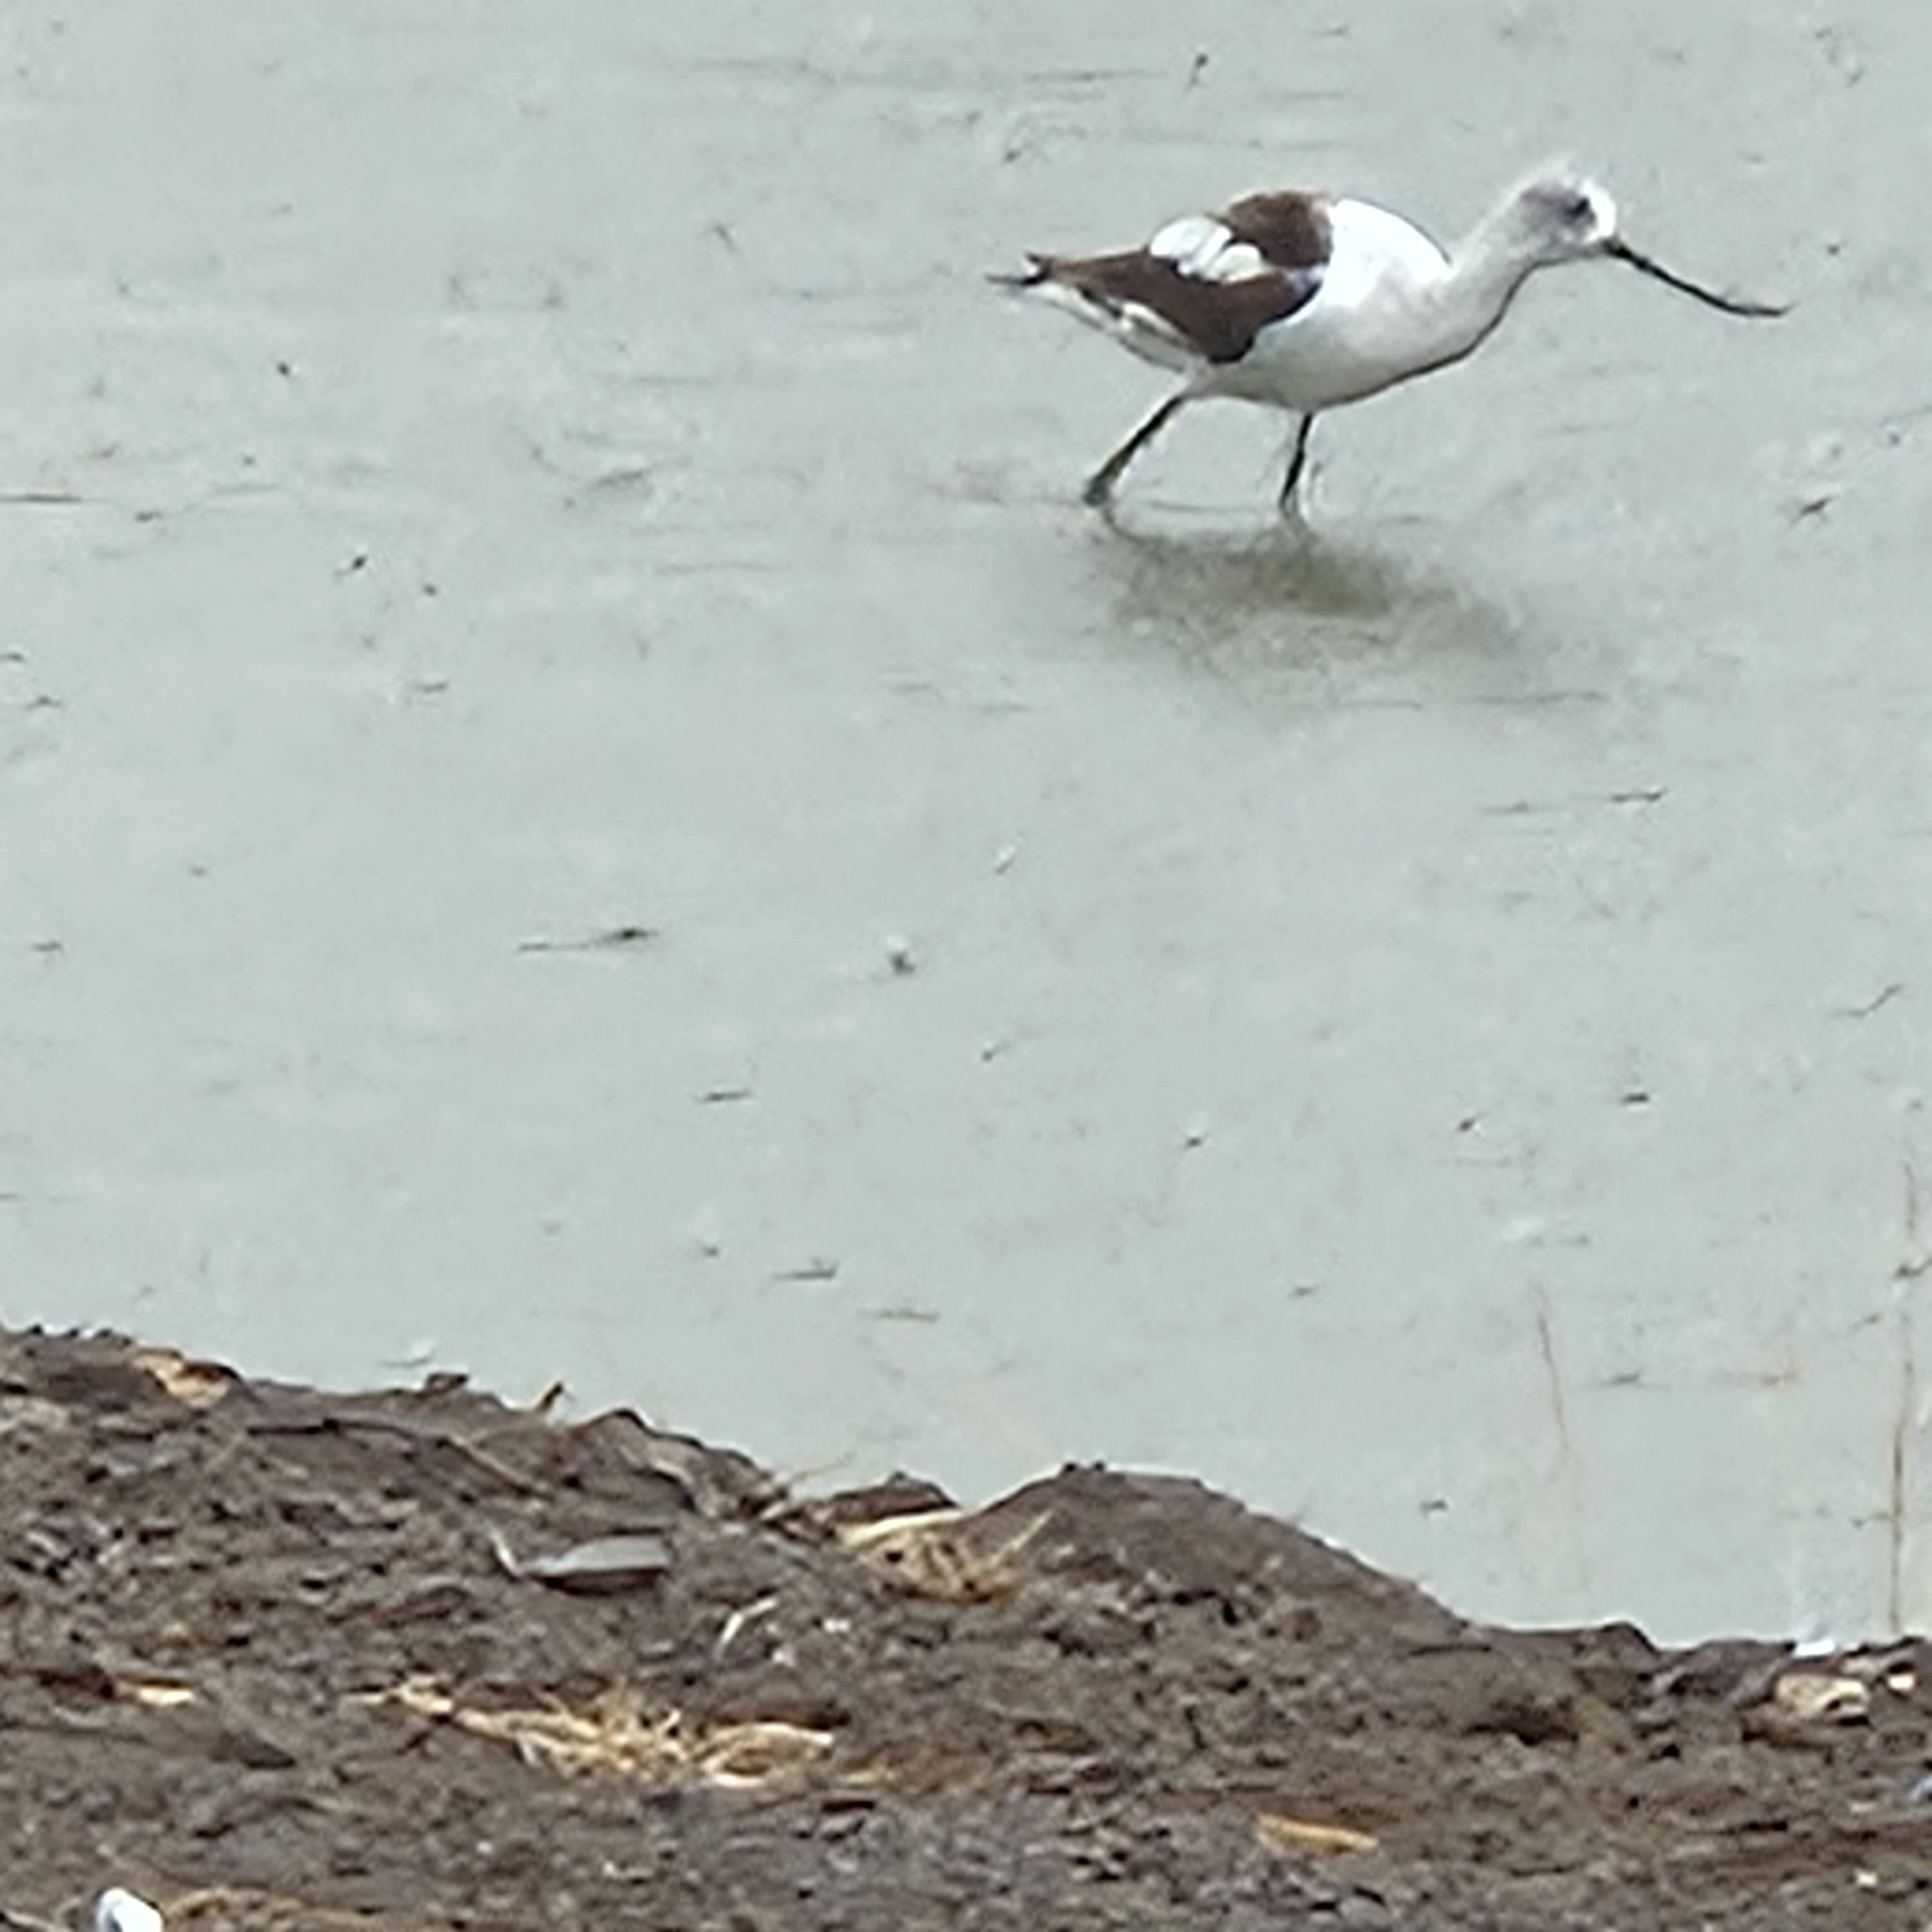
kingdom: Animalia
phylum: Chordata
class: Aves
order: Charadriiformes
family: Recurvirostridae
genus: Recurvirostra
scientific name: Recurvirostra americana
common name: American avocet
